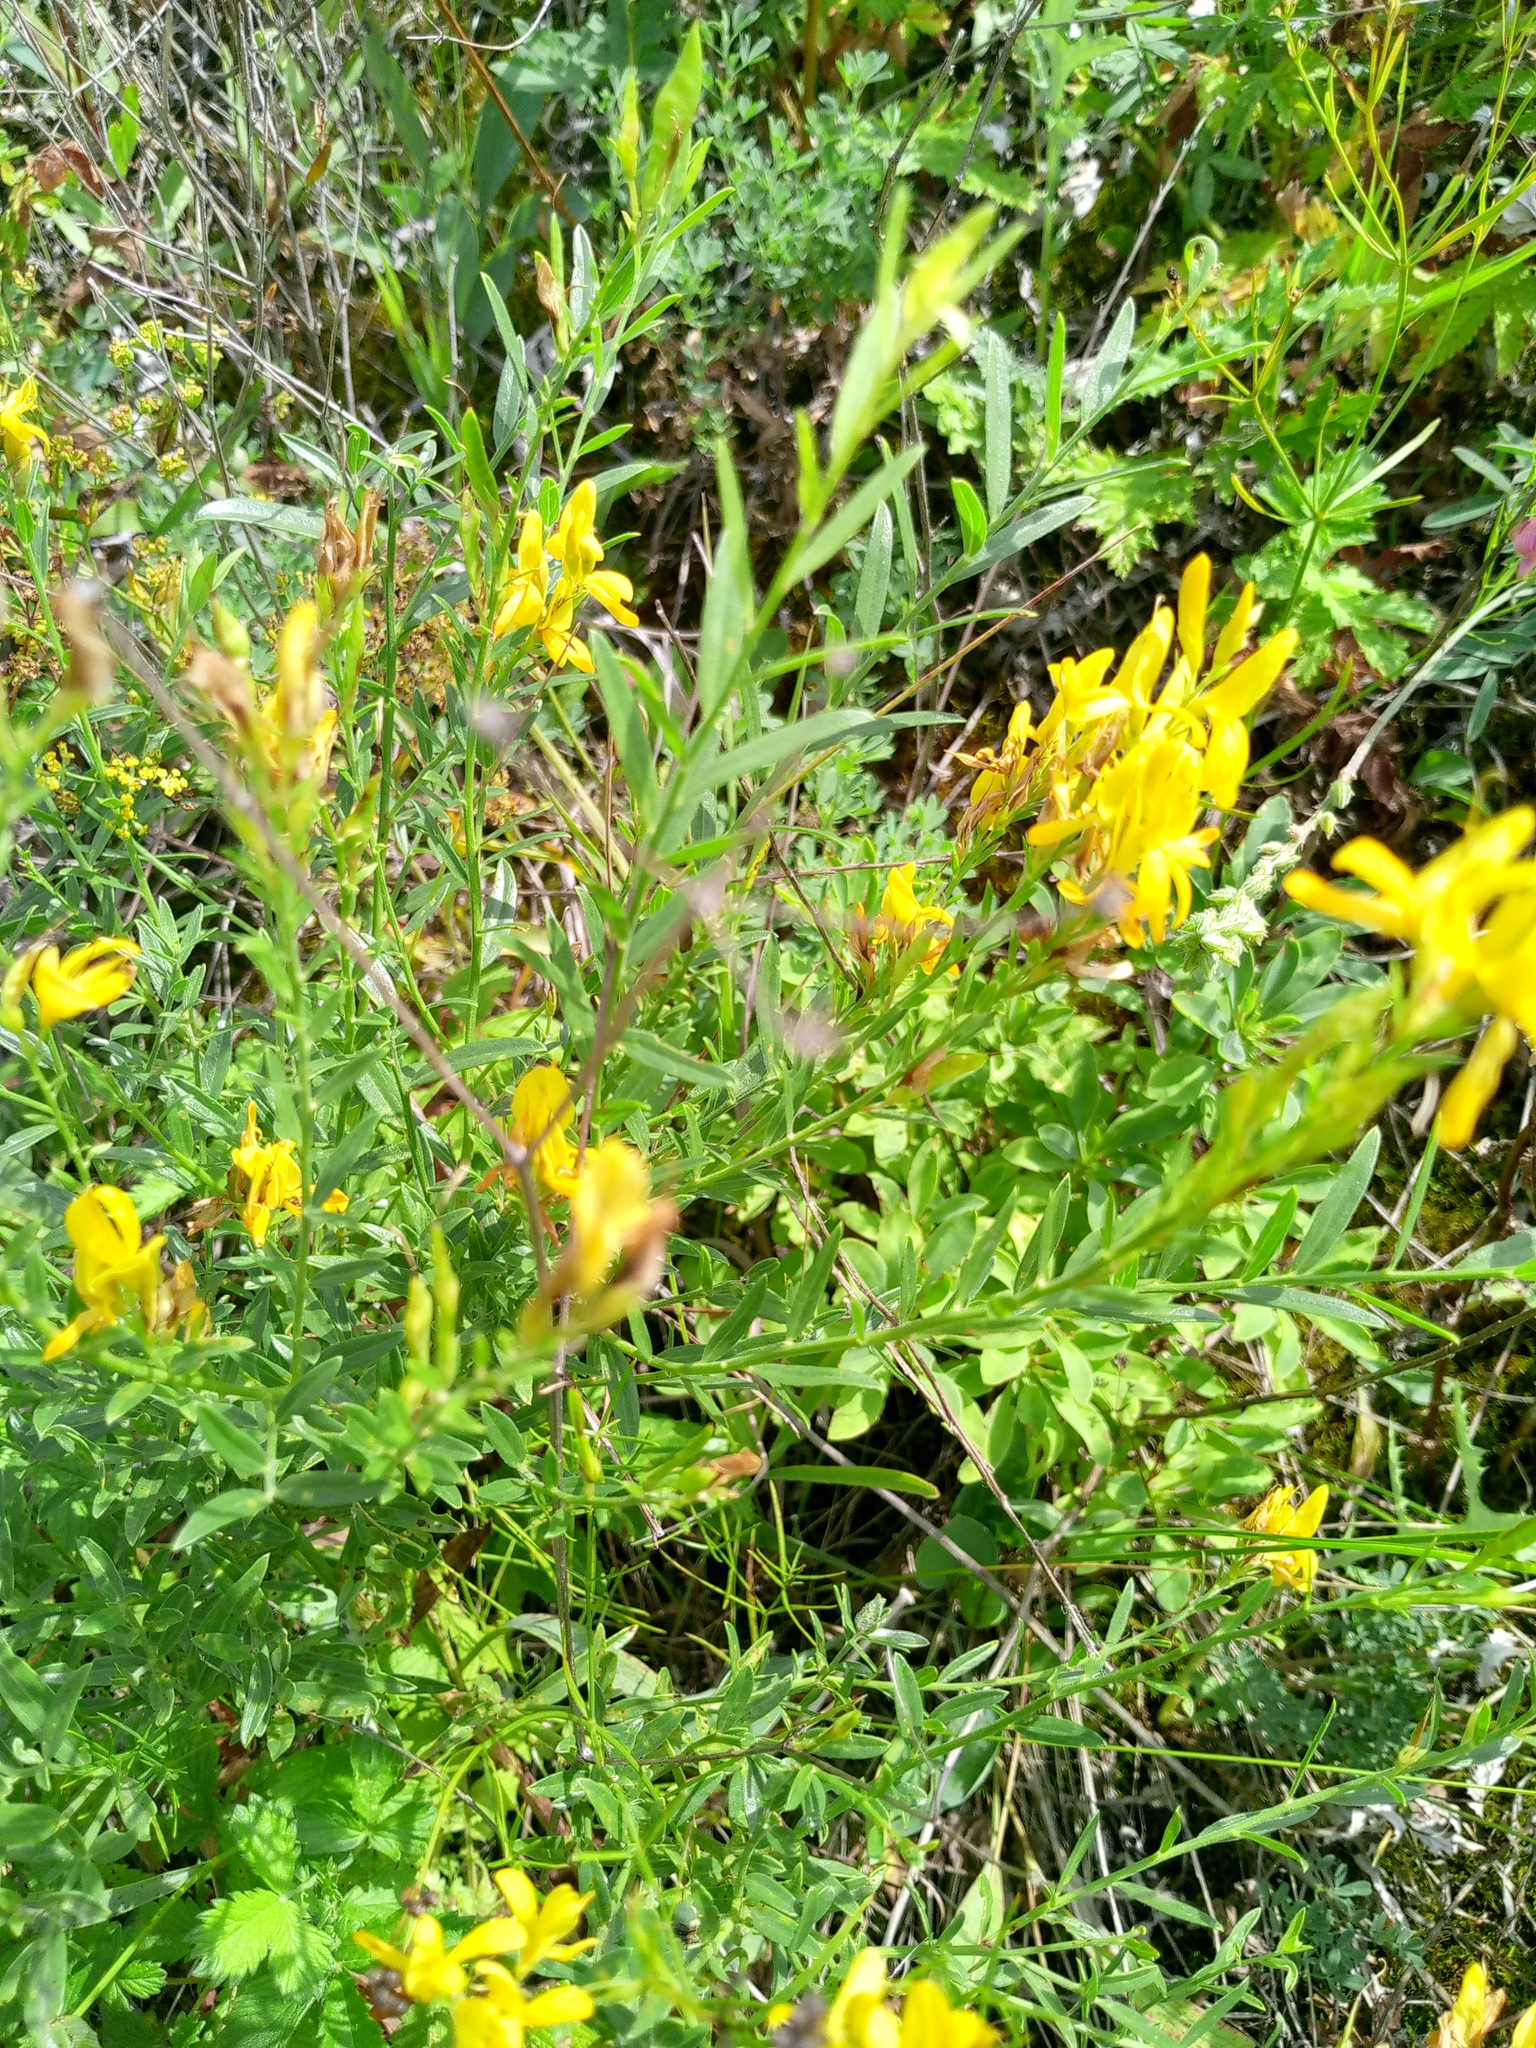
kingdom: Plantae
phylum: Tracheophyta
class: Magnoliopsida
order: Fabales
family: Fabaceae
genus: Genista
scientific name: Genista tinctoria
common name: Dyer's greenweed
